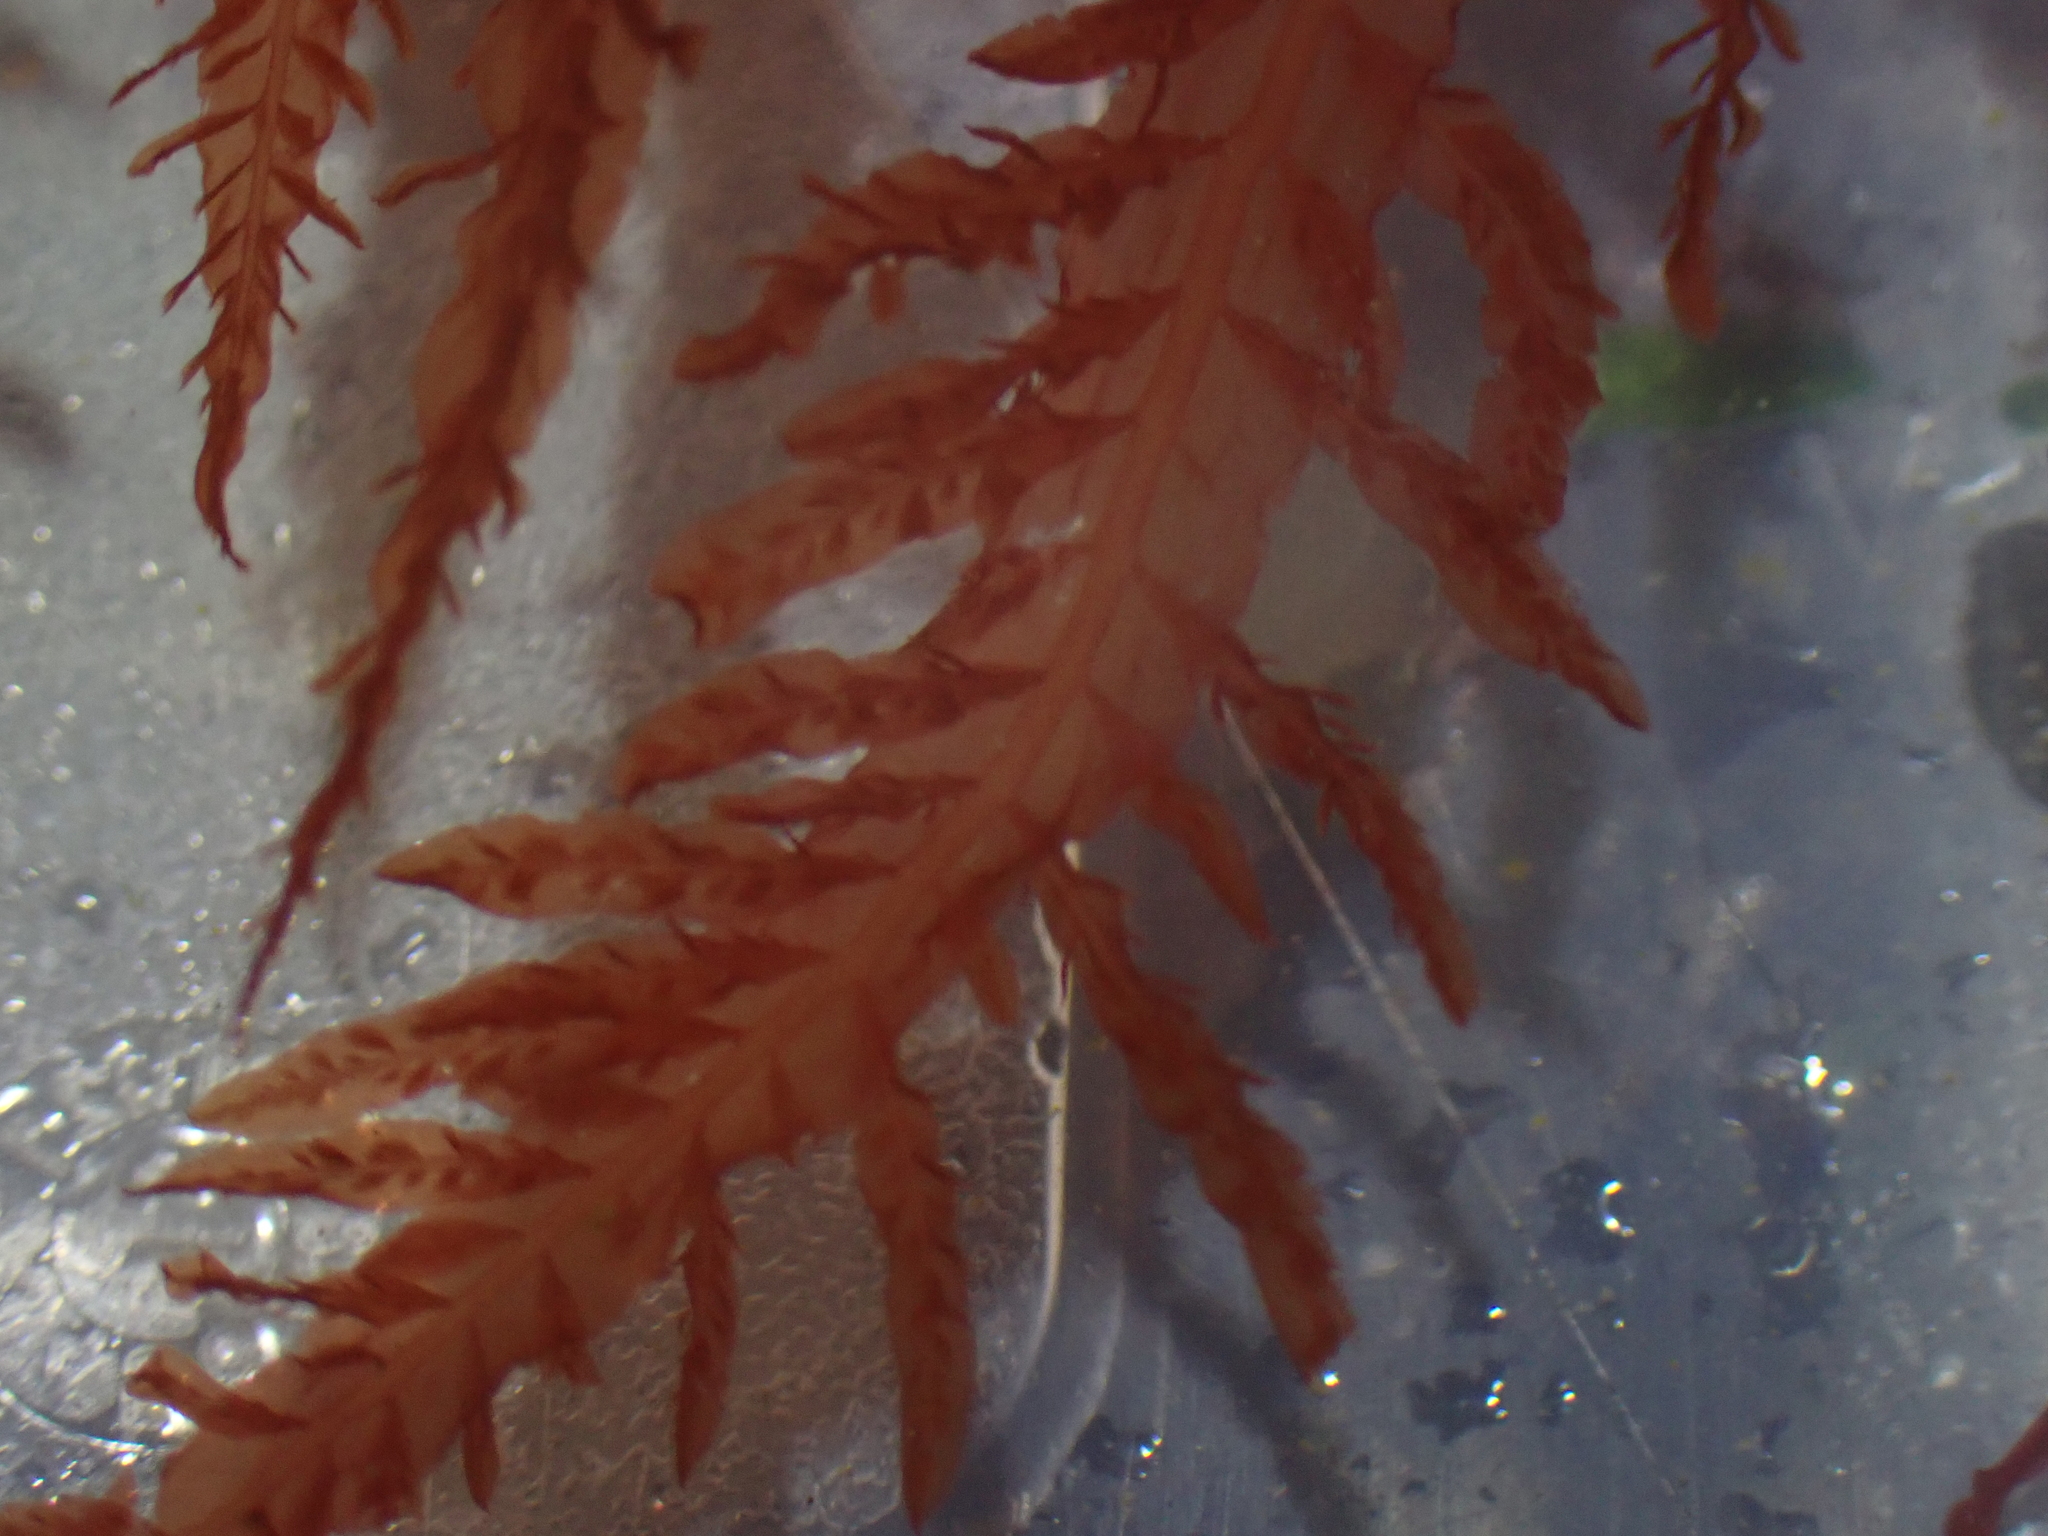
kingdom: Plantae
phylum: Rhodophyta
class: Florideophyceae
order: Ceramiales
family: Delesseriaceae
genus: Cumathamnion
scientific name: Cumathamnion decipiens
